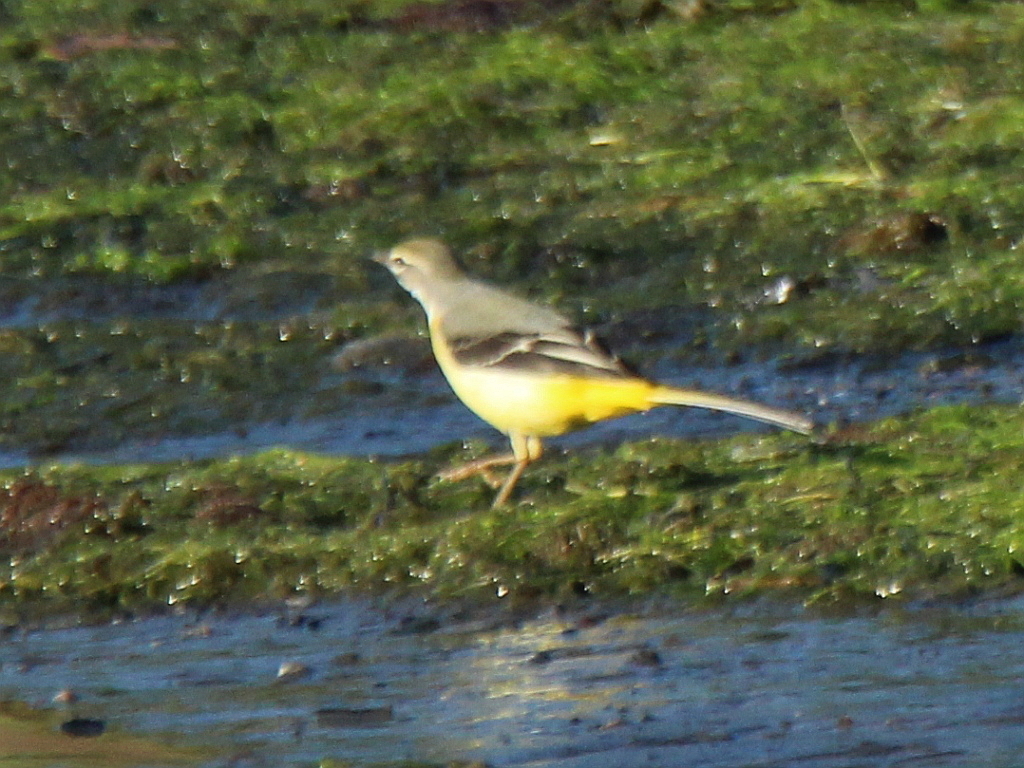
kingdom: Animalia
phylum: Chordata
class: Aves
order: Passeriformes
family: Motacillidae
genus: Motacilla
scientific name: Motacilla cinerea
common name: Grey wagtail
